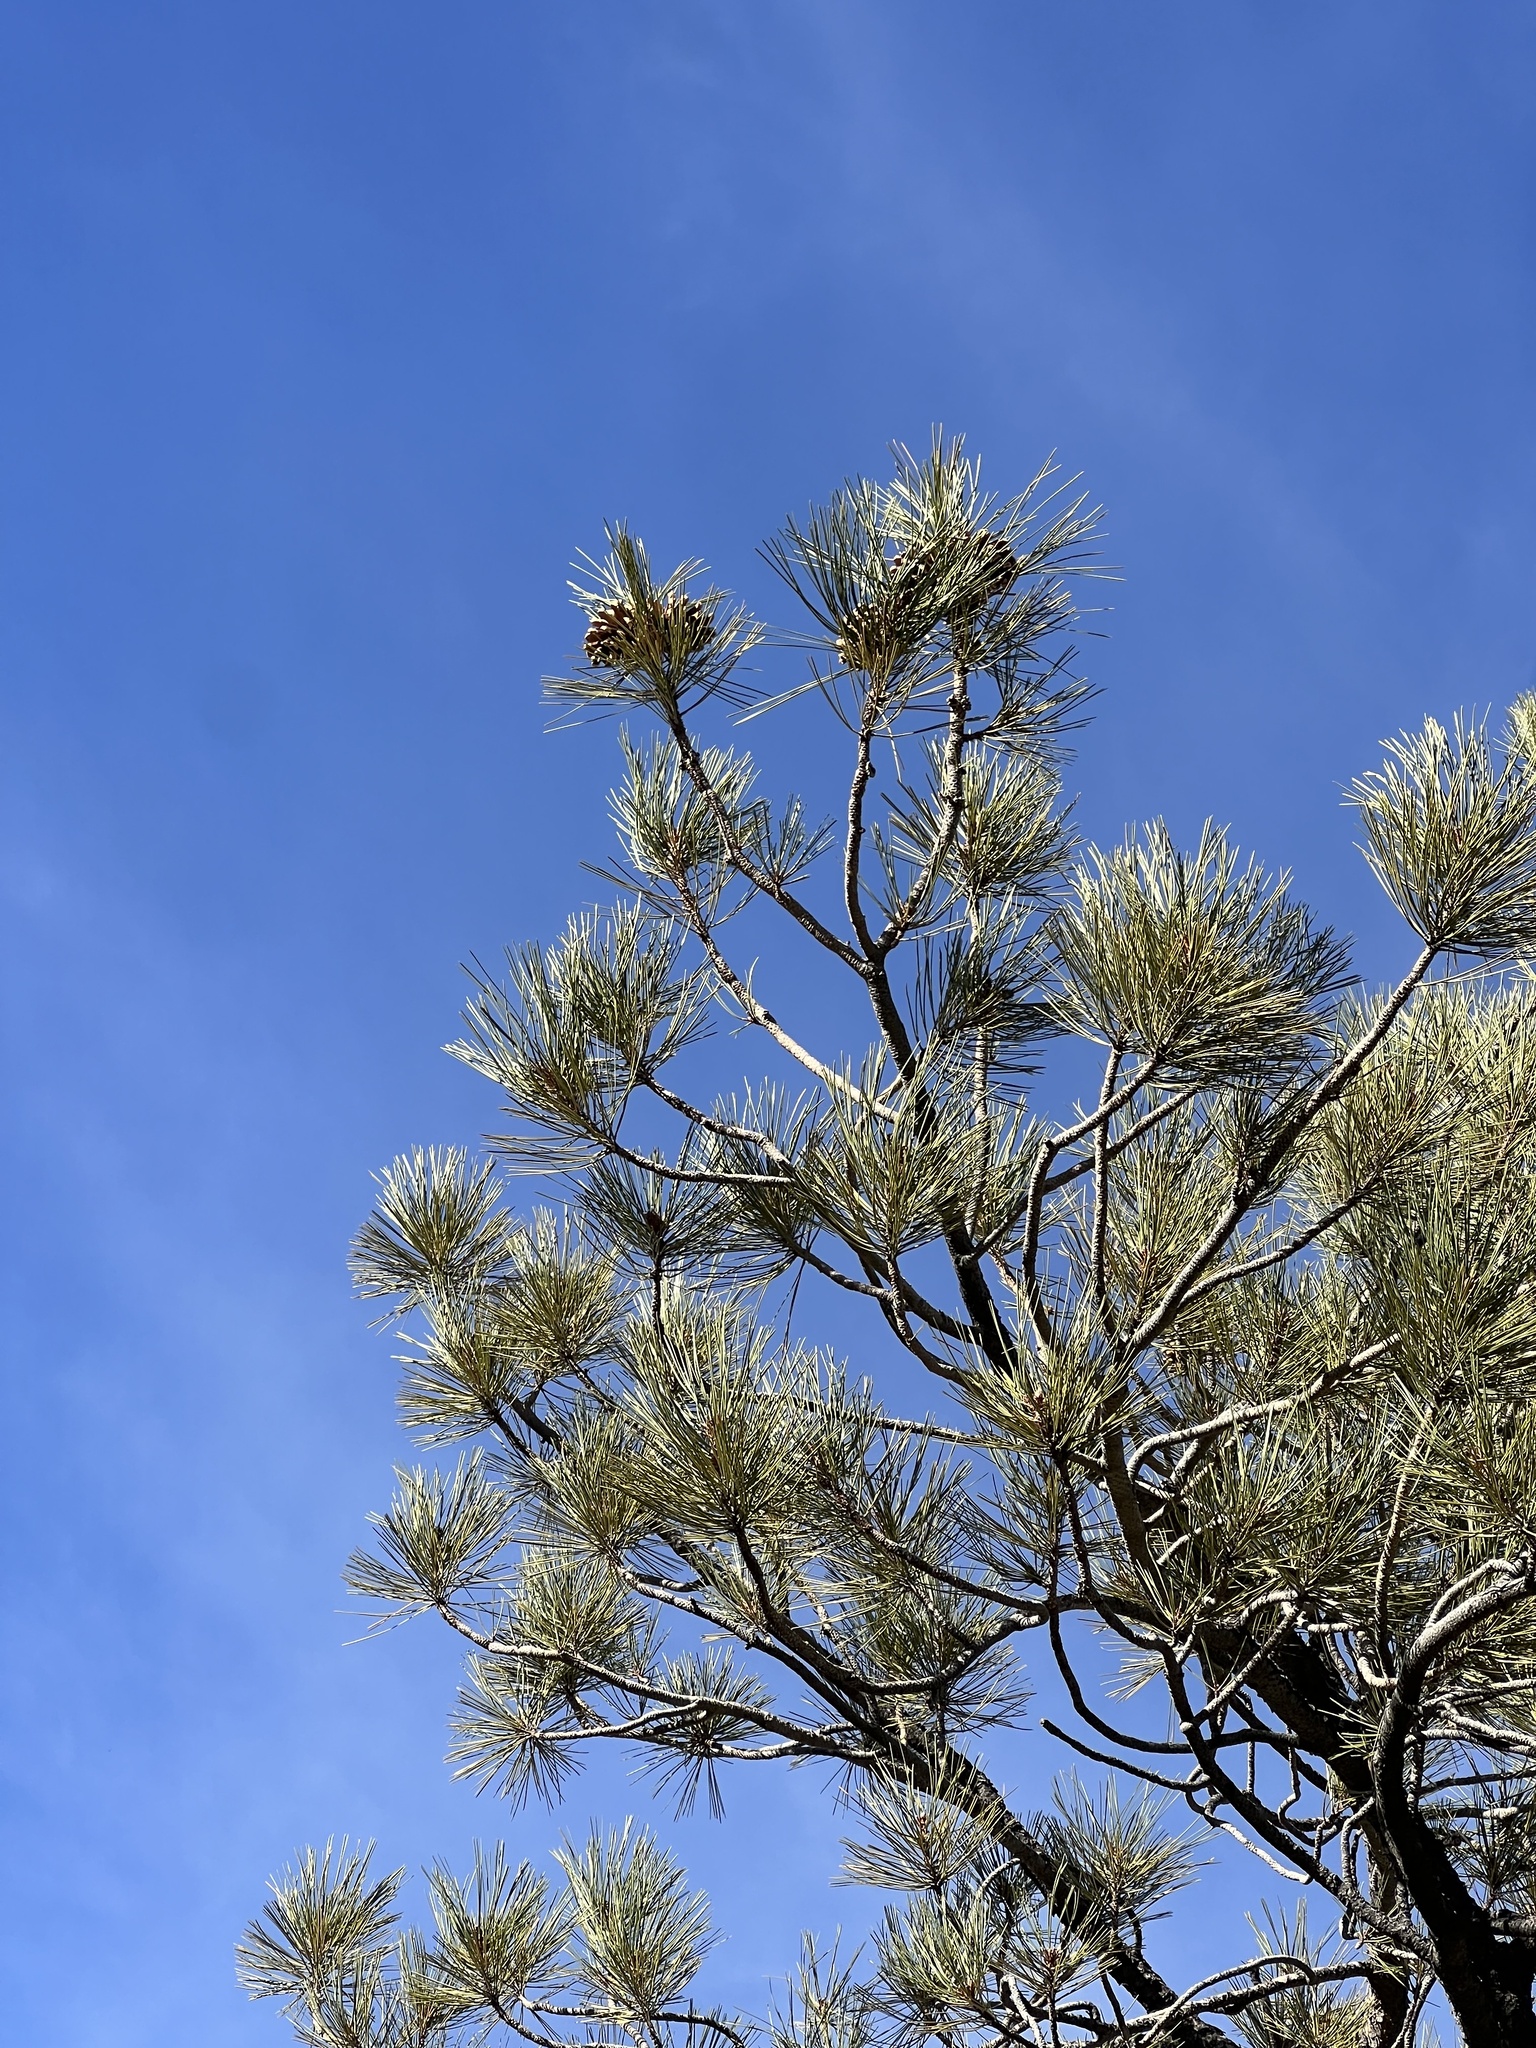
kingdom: Plantae
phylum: Tracheophyta
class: Pinopsida
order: Pinales
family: Pinaceae
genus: Pinus
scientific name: Pinus ponderosa
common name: Western yellow-pine
